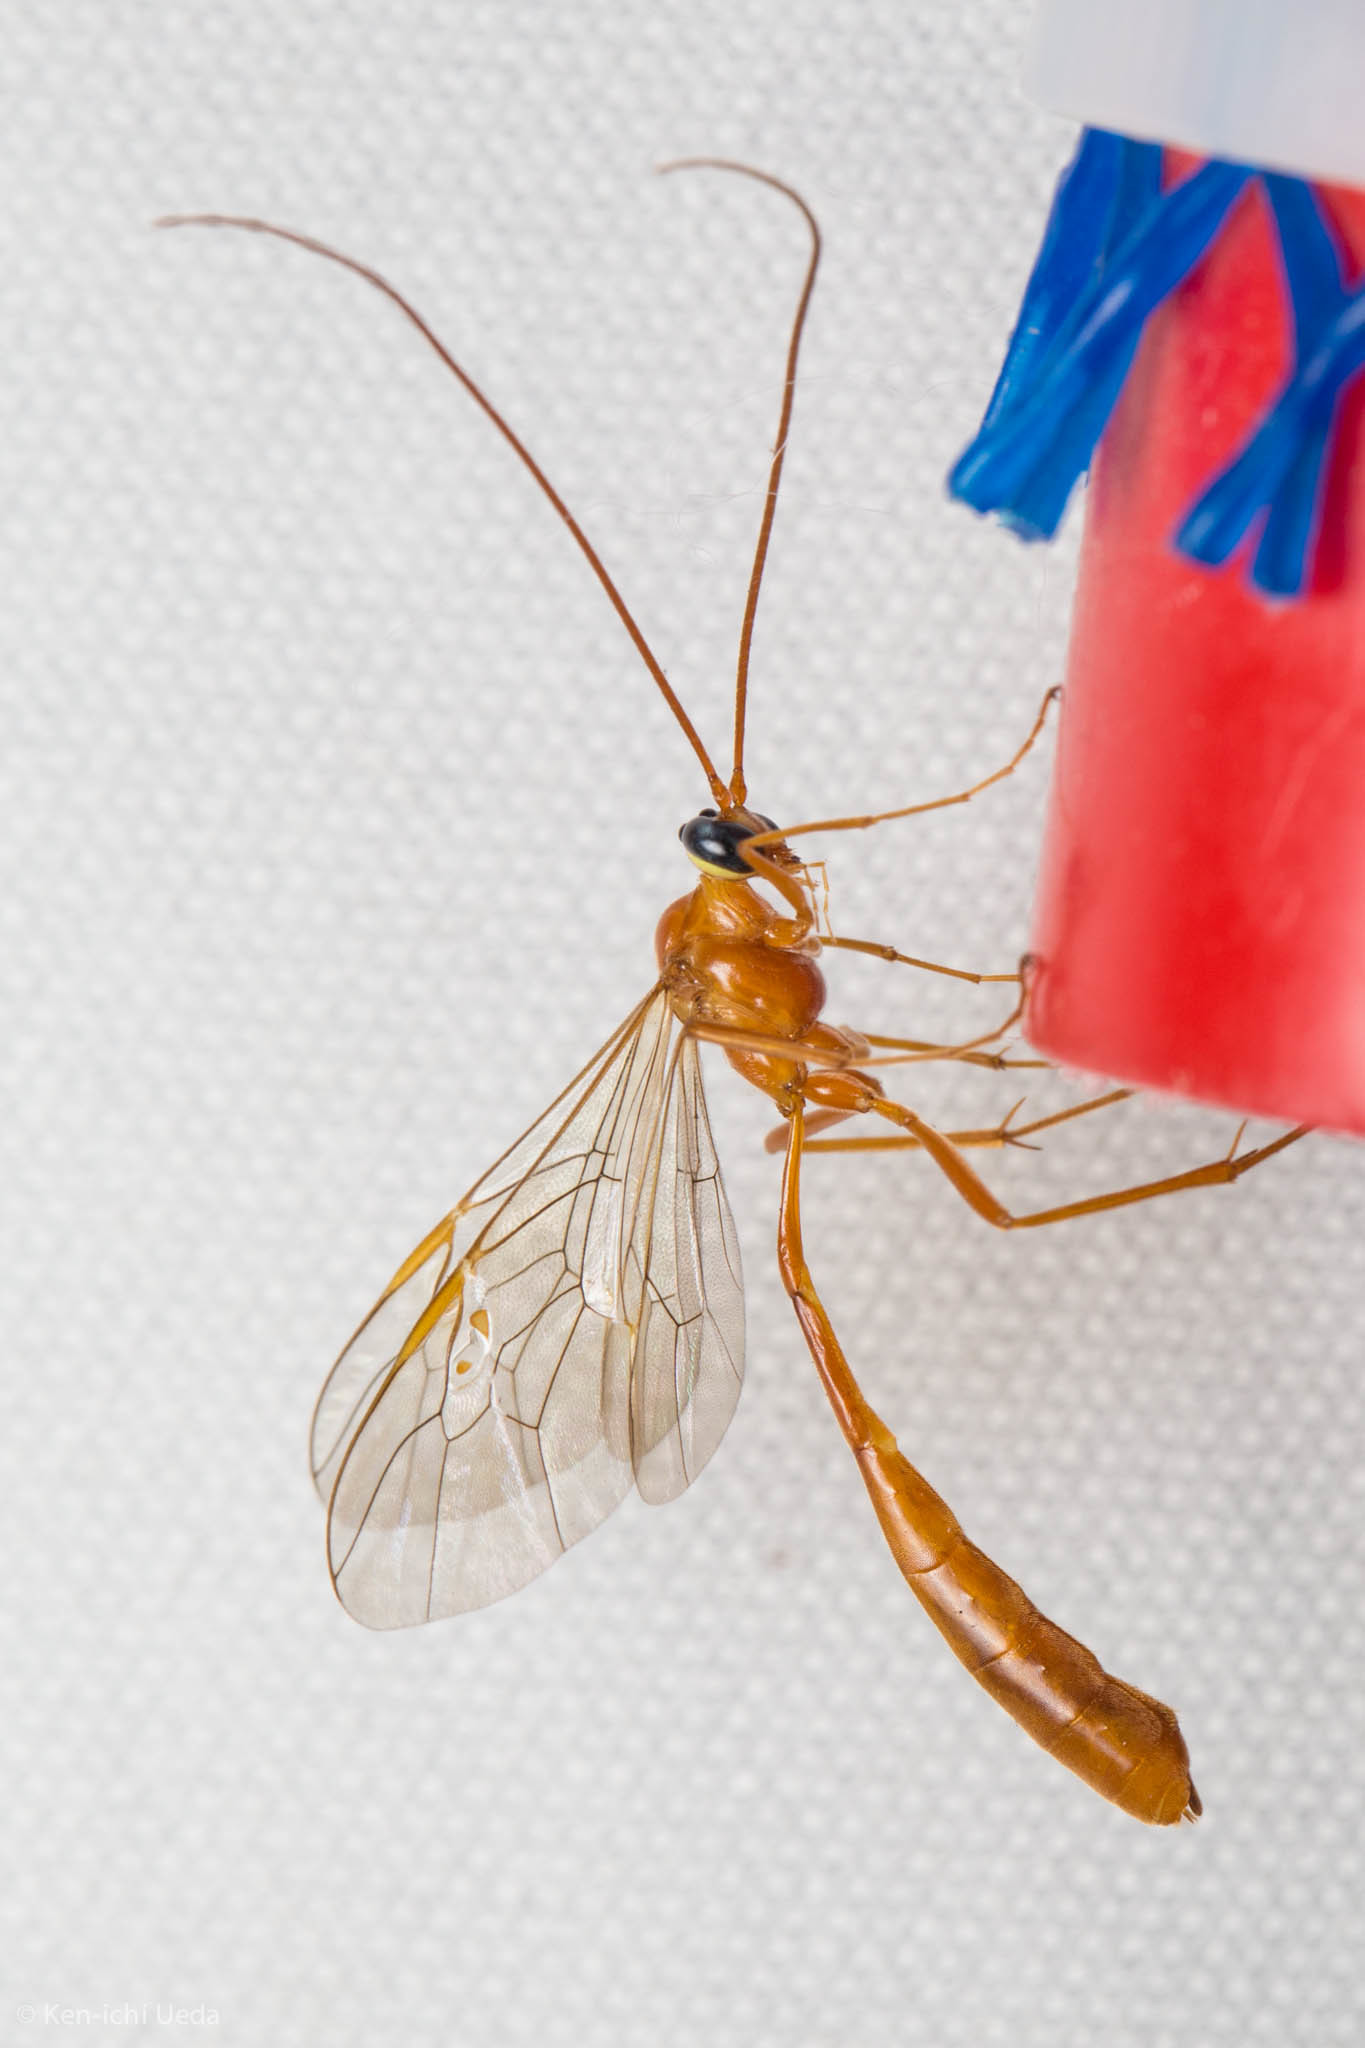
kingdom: Animalia
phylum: Arthropoda
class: Insecta
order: Hymenoptera
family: Ichneumonidae
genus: Enicospilus
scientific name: Enicospilus purgatus
